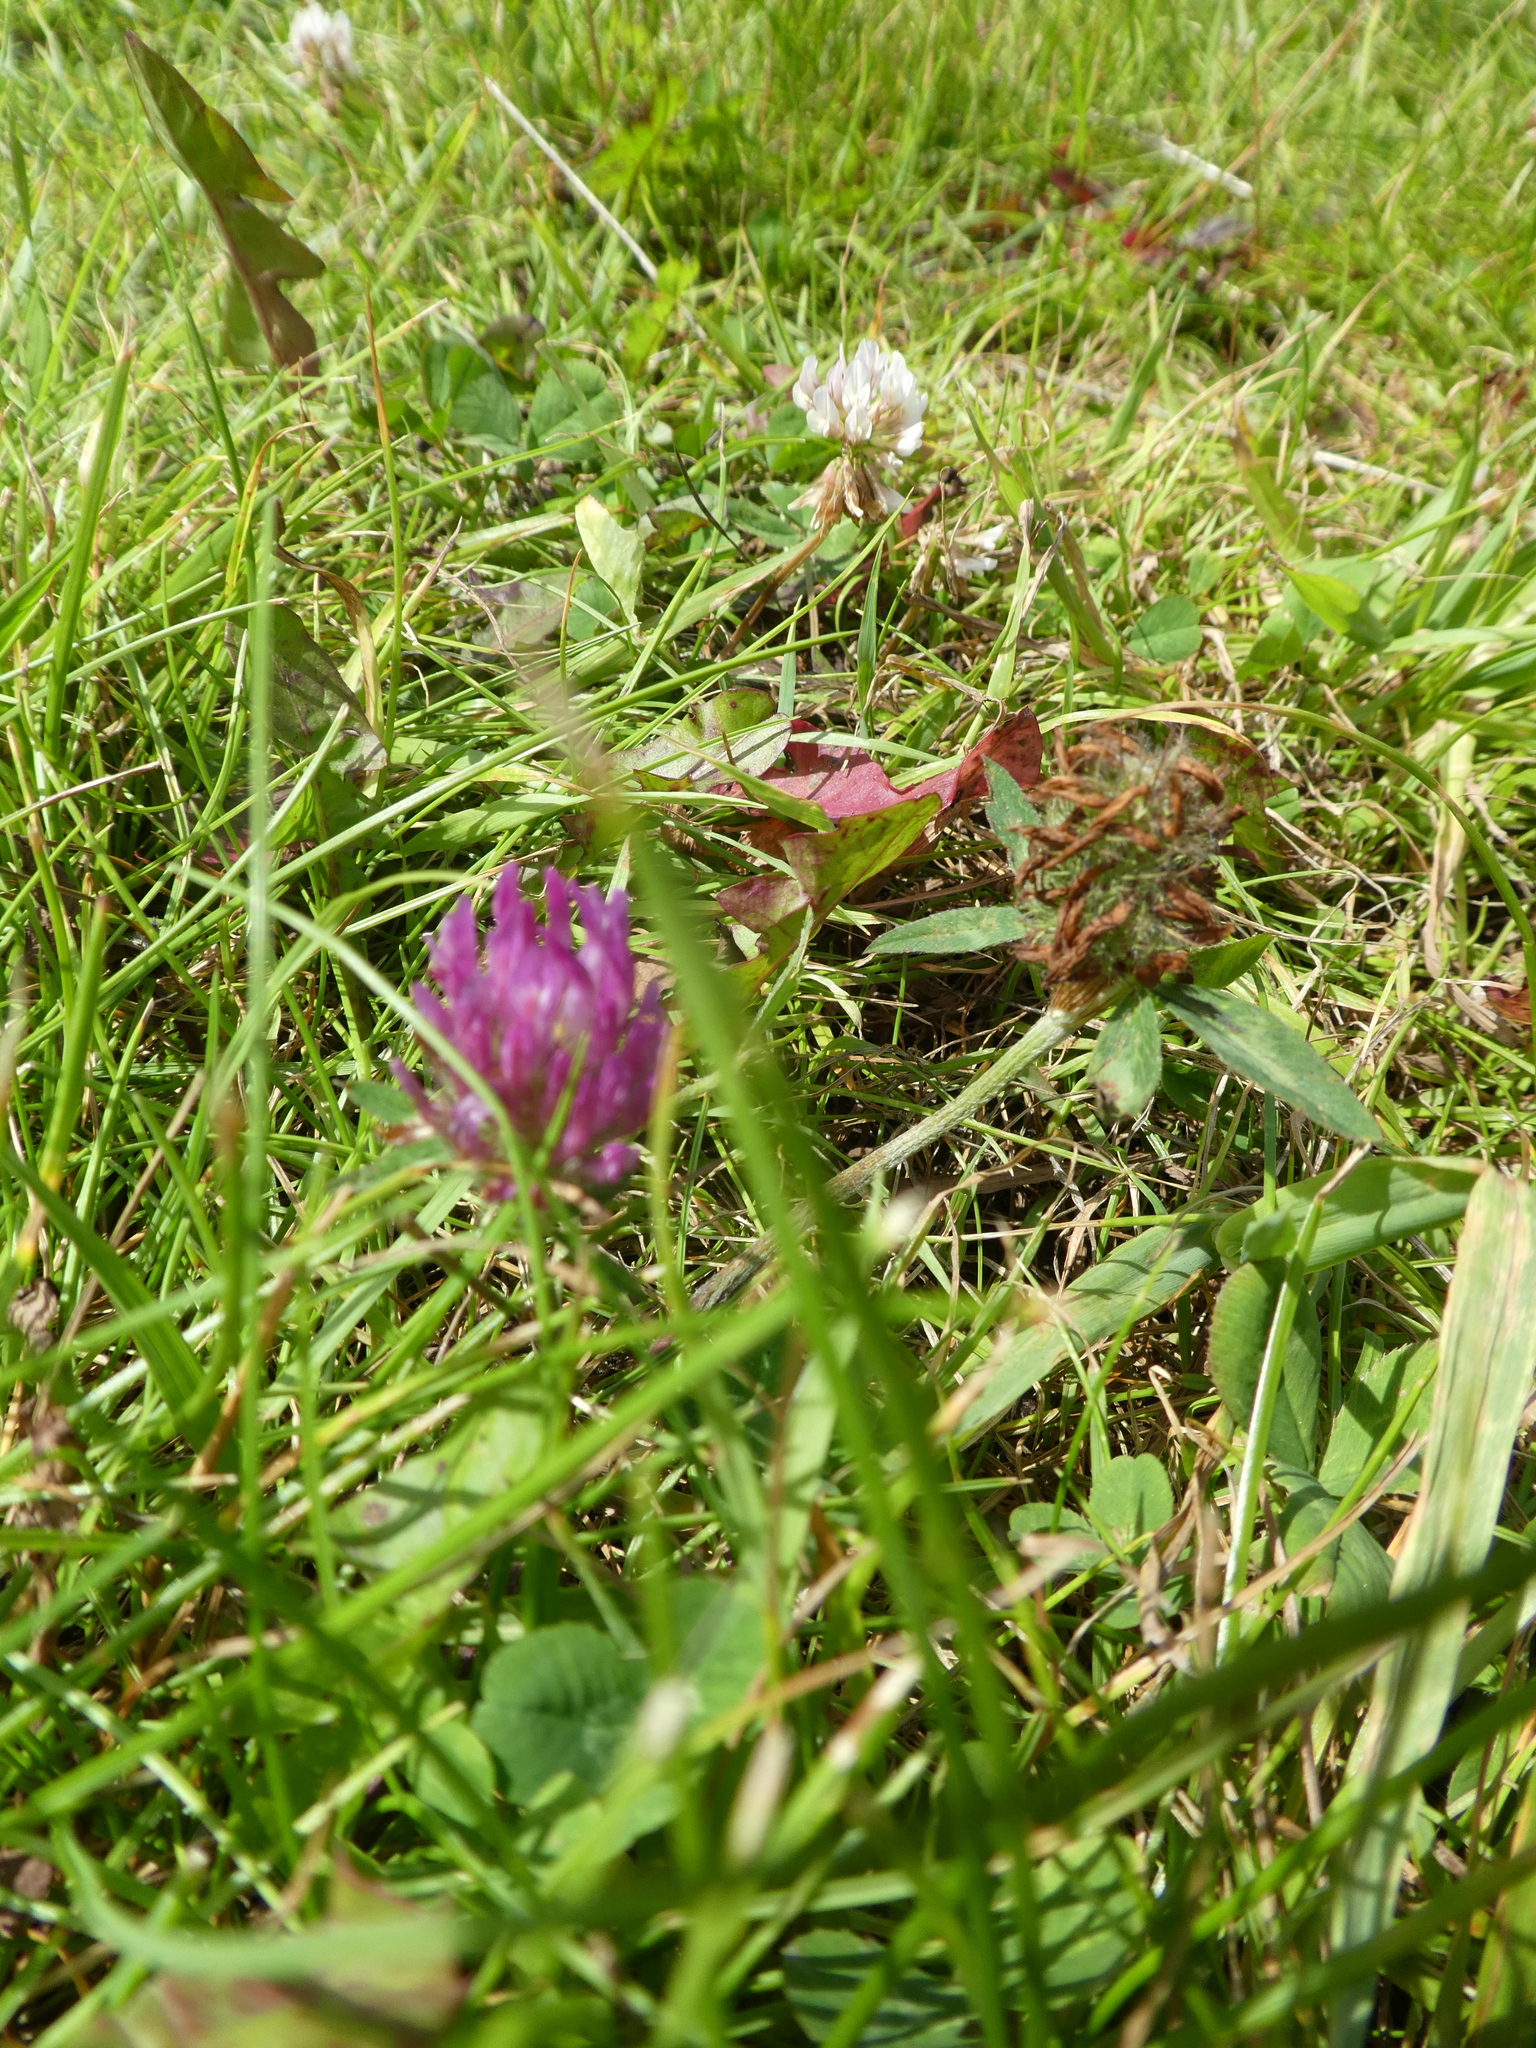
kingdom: Plantae
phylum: Tracheophyta
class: Magnoliopsida
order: Fabales
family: Fabaceae
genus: Trifolium
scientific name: Trifolium pratense
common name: Red clover
